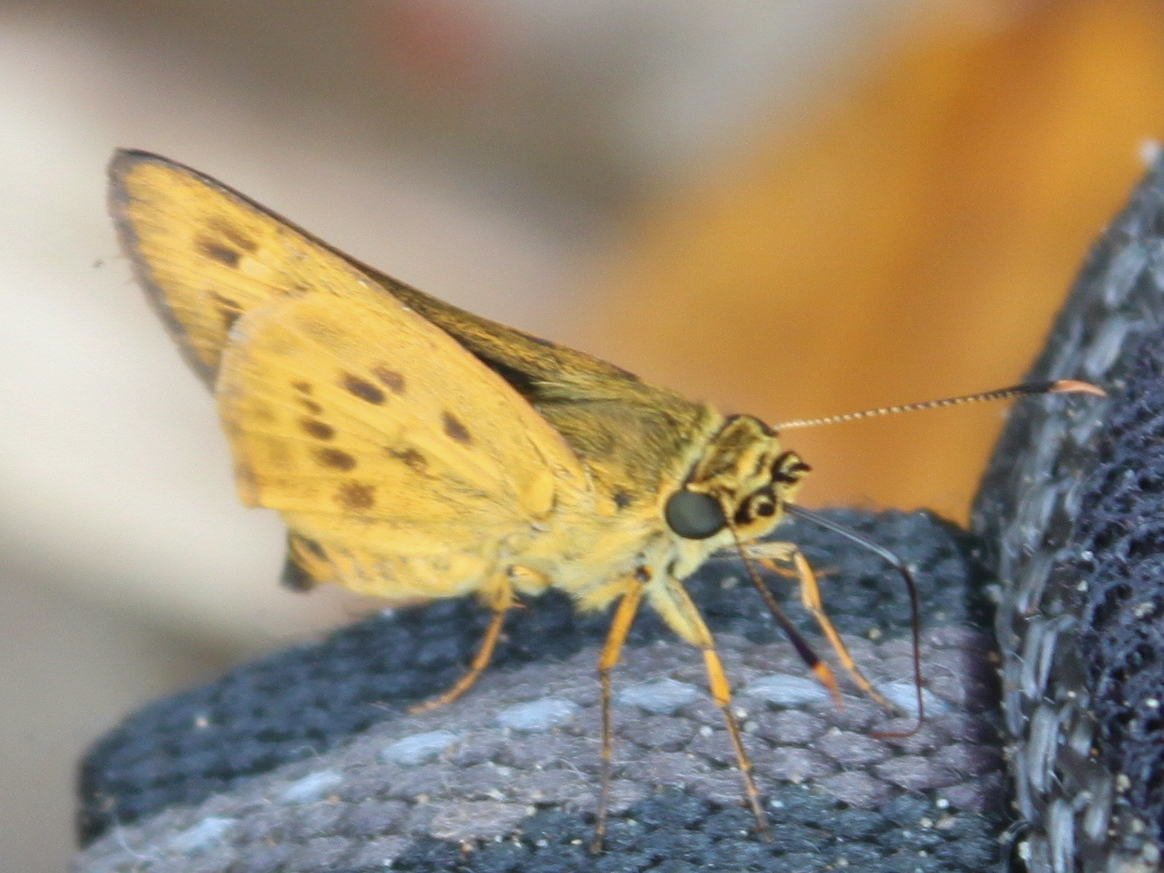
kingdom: Animalia
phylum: Arthropoda
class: Insecta
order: Lepidoptera
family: Hesperiidae
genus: Thoressa
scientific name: Thoressa masoni
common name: Golden ace
